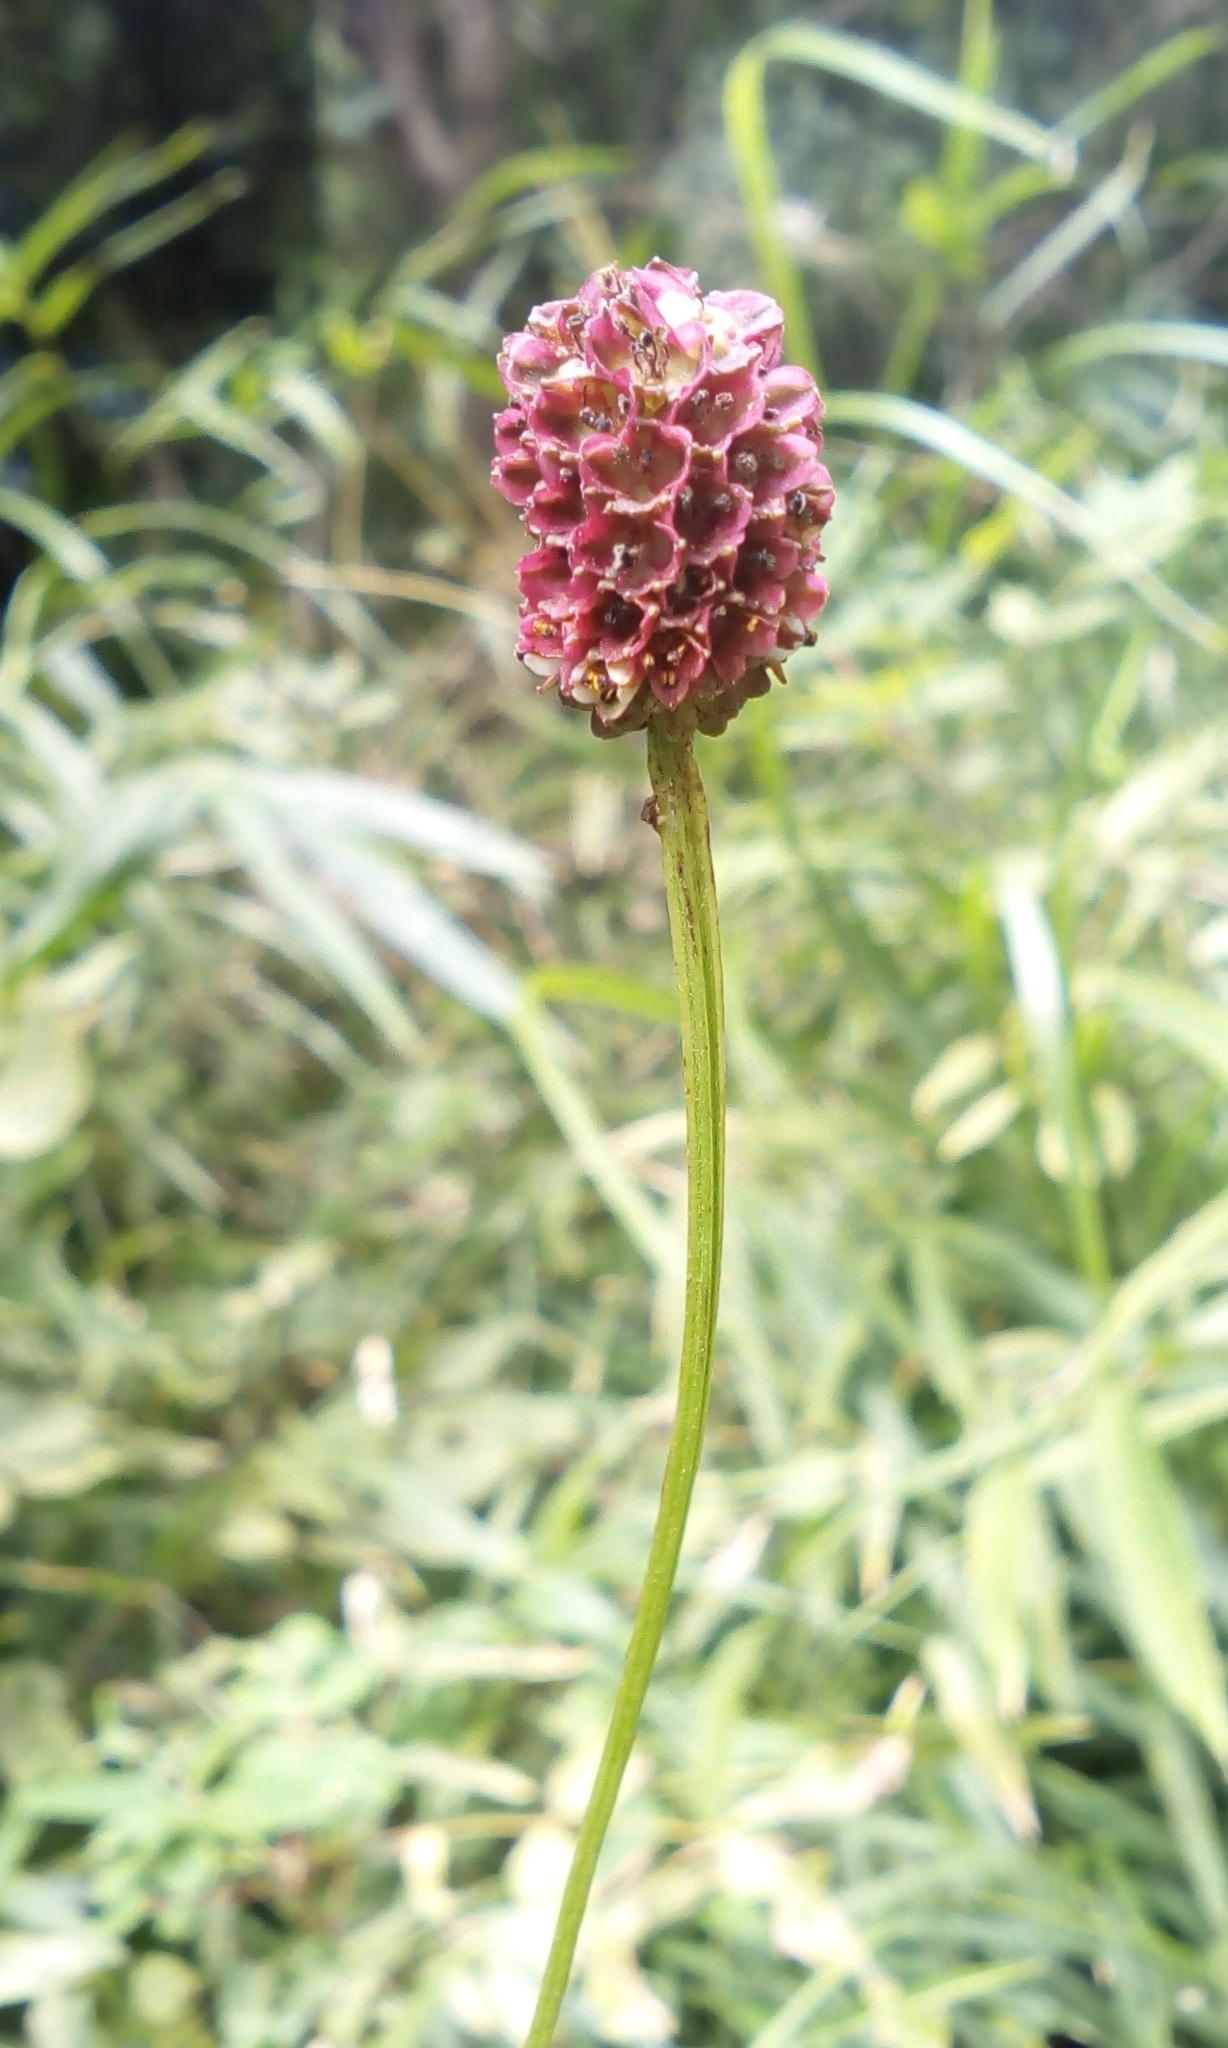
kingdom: Plantae
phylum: Tracheophyta
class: Magnoliopsida
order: Rosales
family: Rosaceae
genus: Sanguisorba
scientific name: Sanguisorba officinalis
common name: Great burnet
